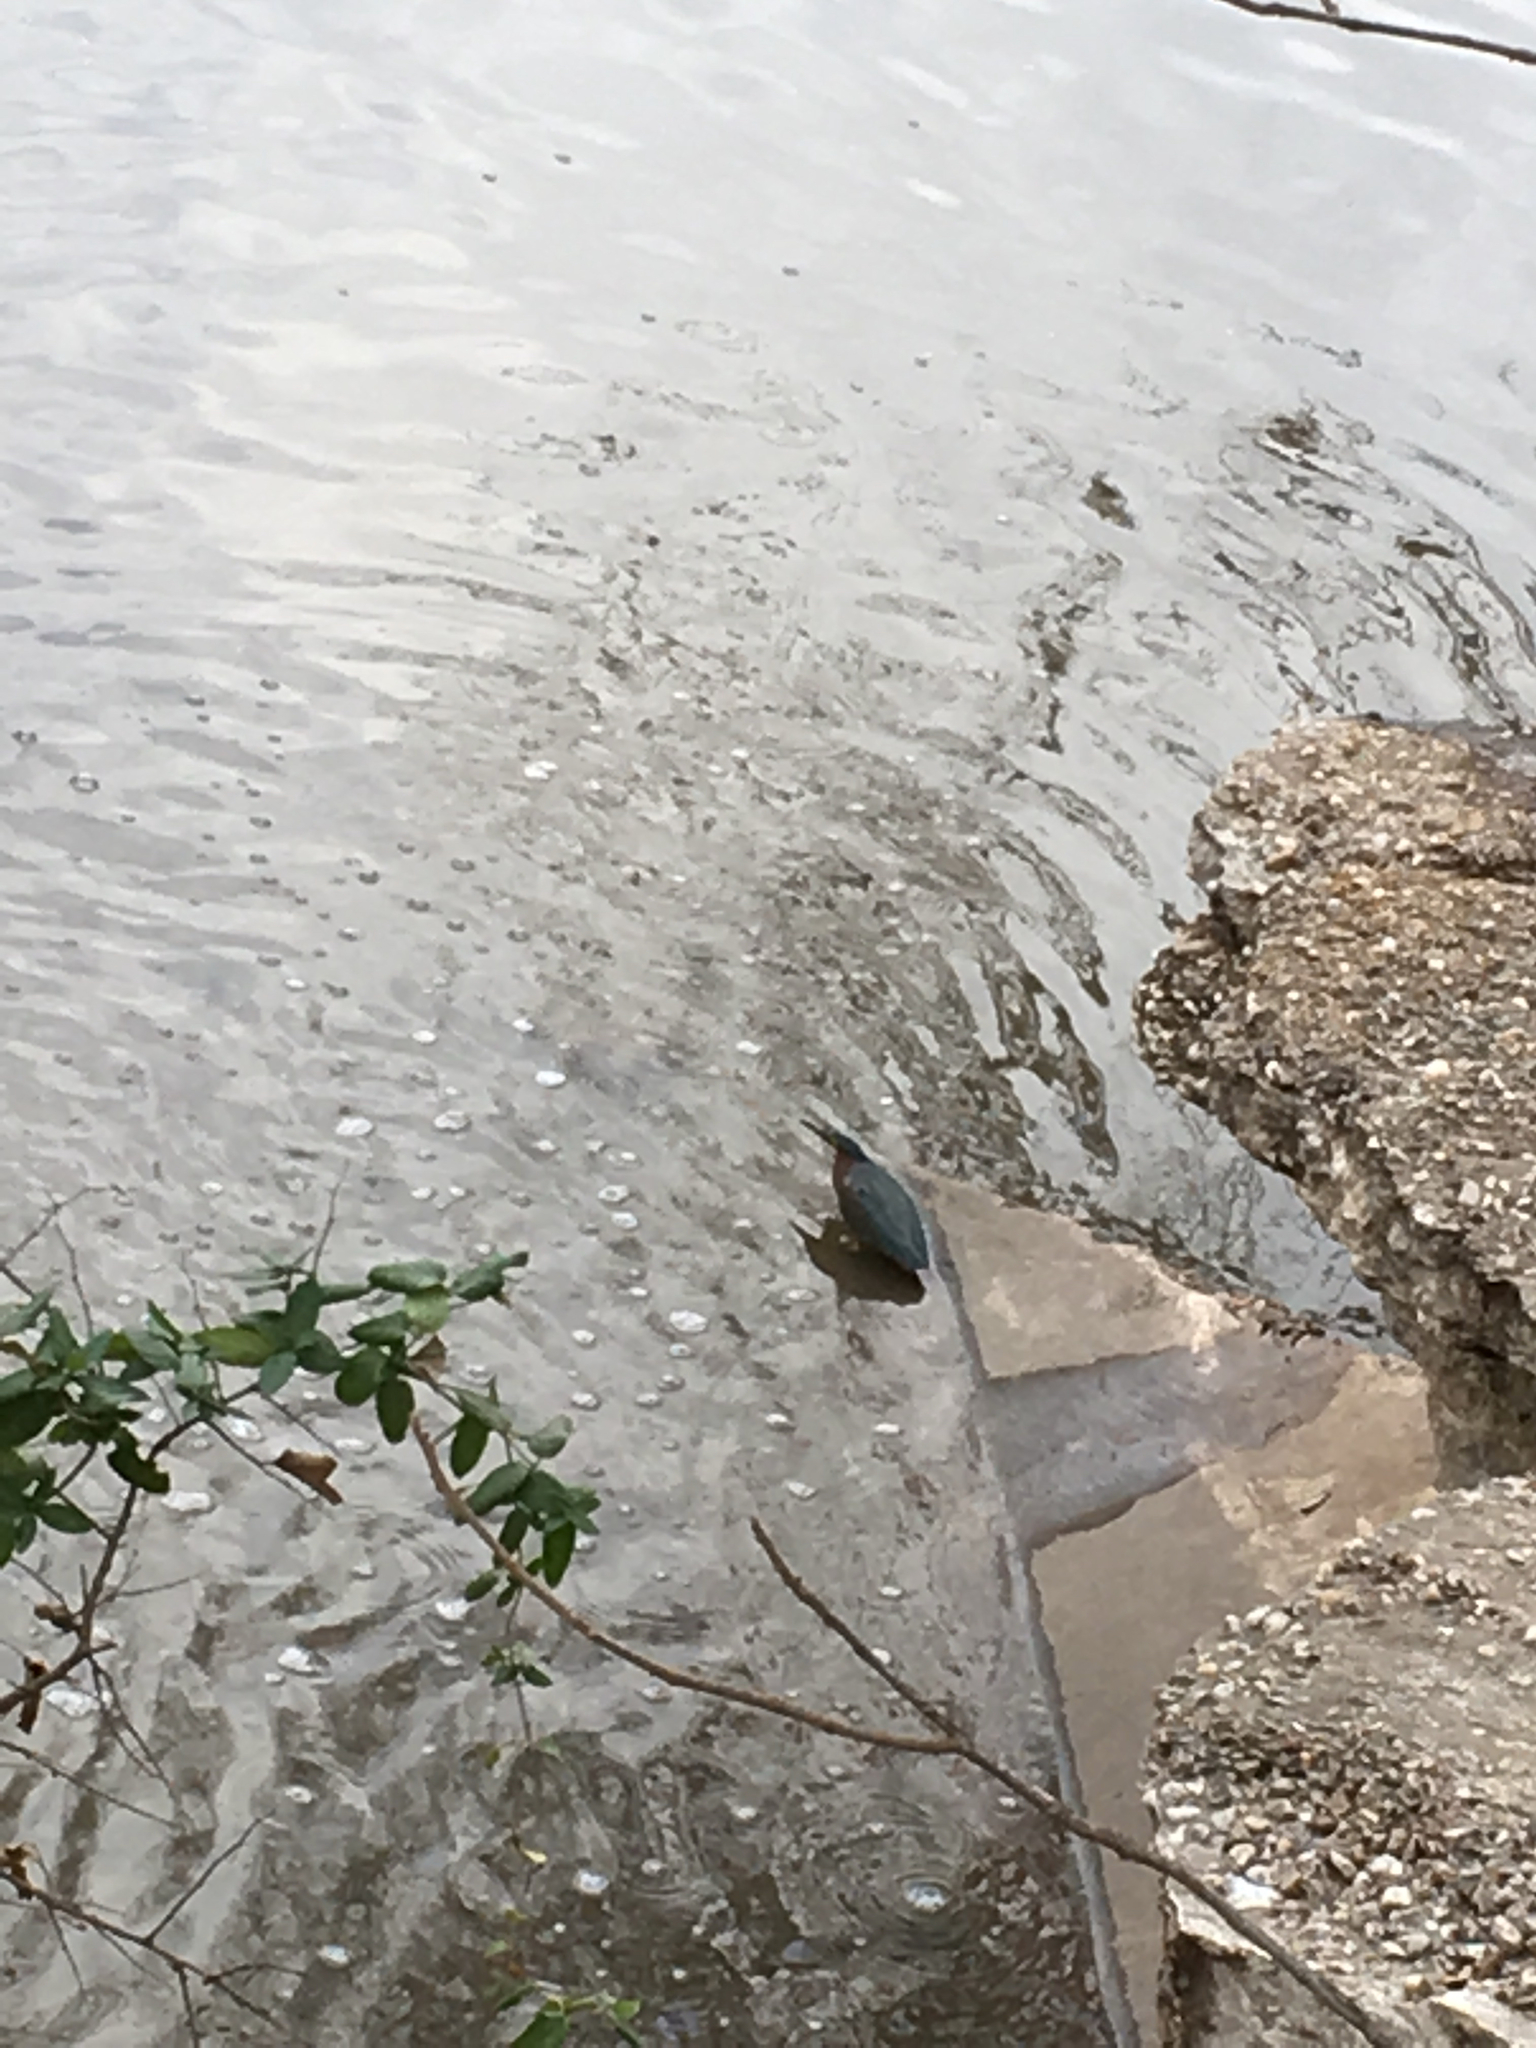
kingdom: Animalia
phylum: Chordata
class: Aves
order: Pelecaniformes
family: Ardeidae
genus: Butorides
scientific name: Butorides virescens
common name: Green heron
